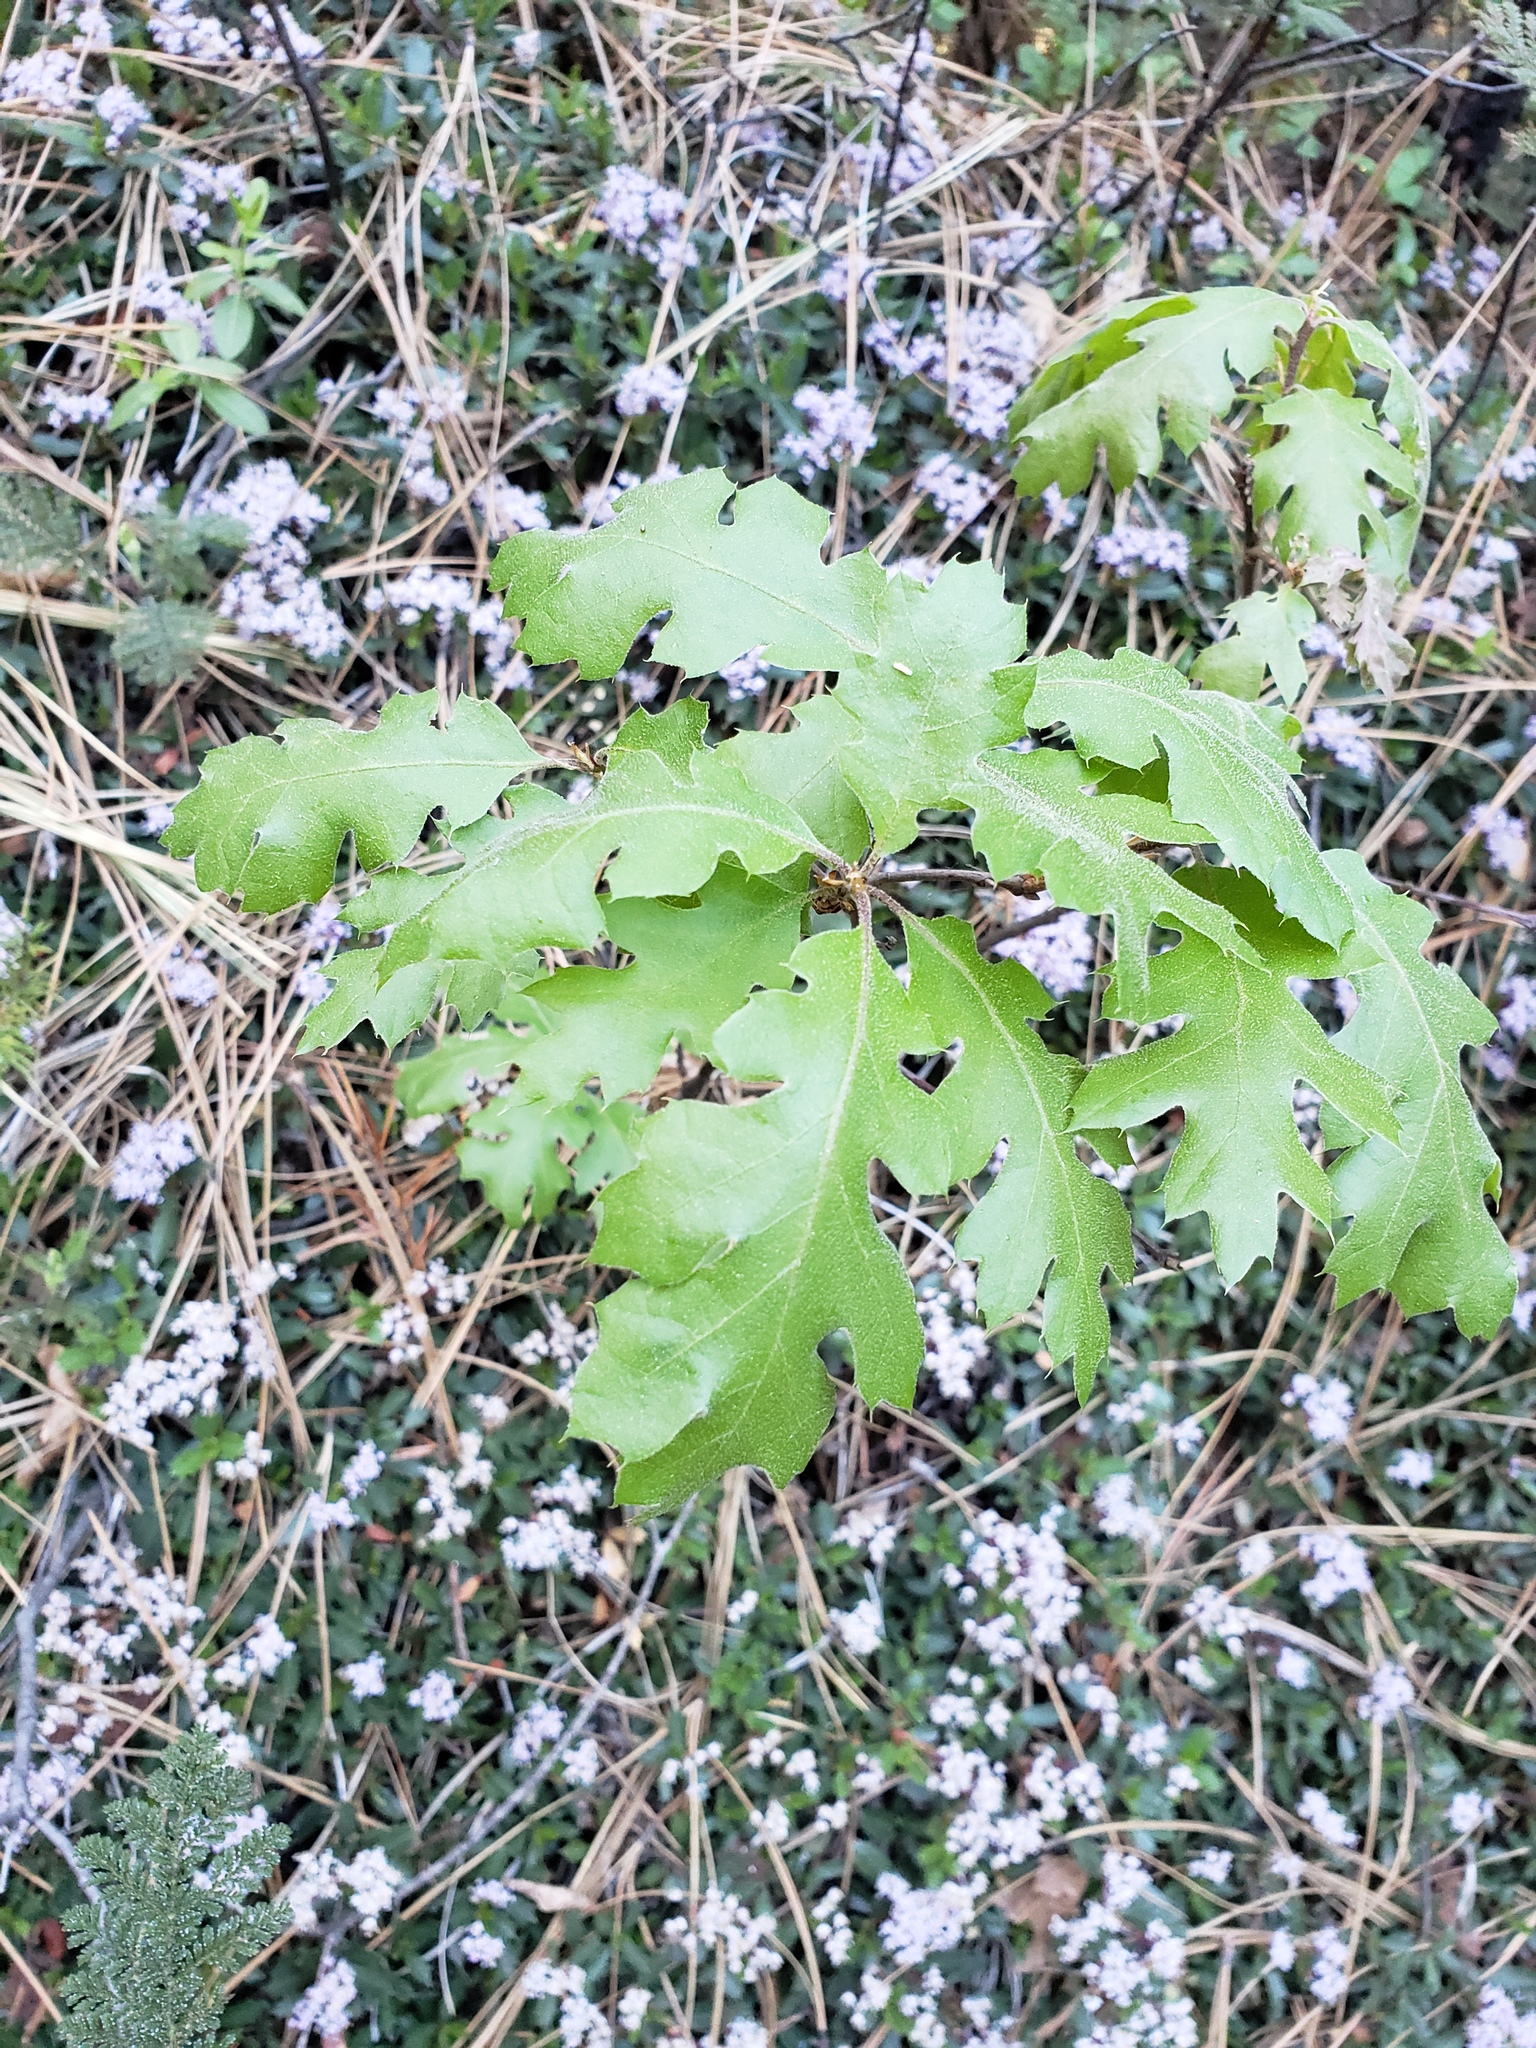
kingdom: Plantae
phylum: Tracheophyta
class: Magnoliopsida
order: Fagales
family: Fagaceae
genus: Quercus
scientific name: Quercus kelloggii
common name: California black oak
